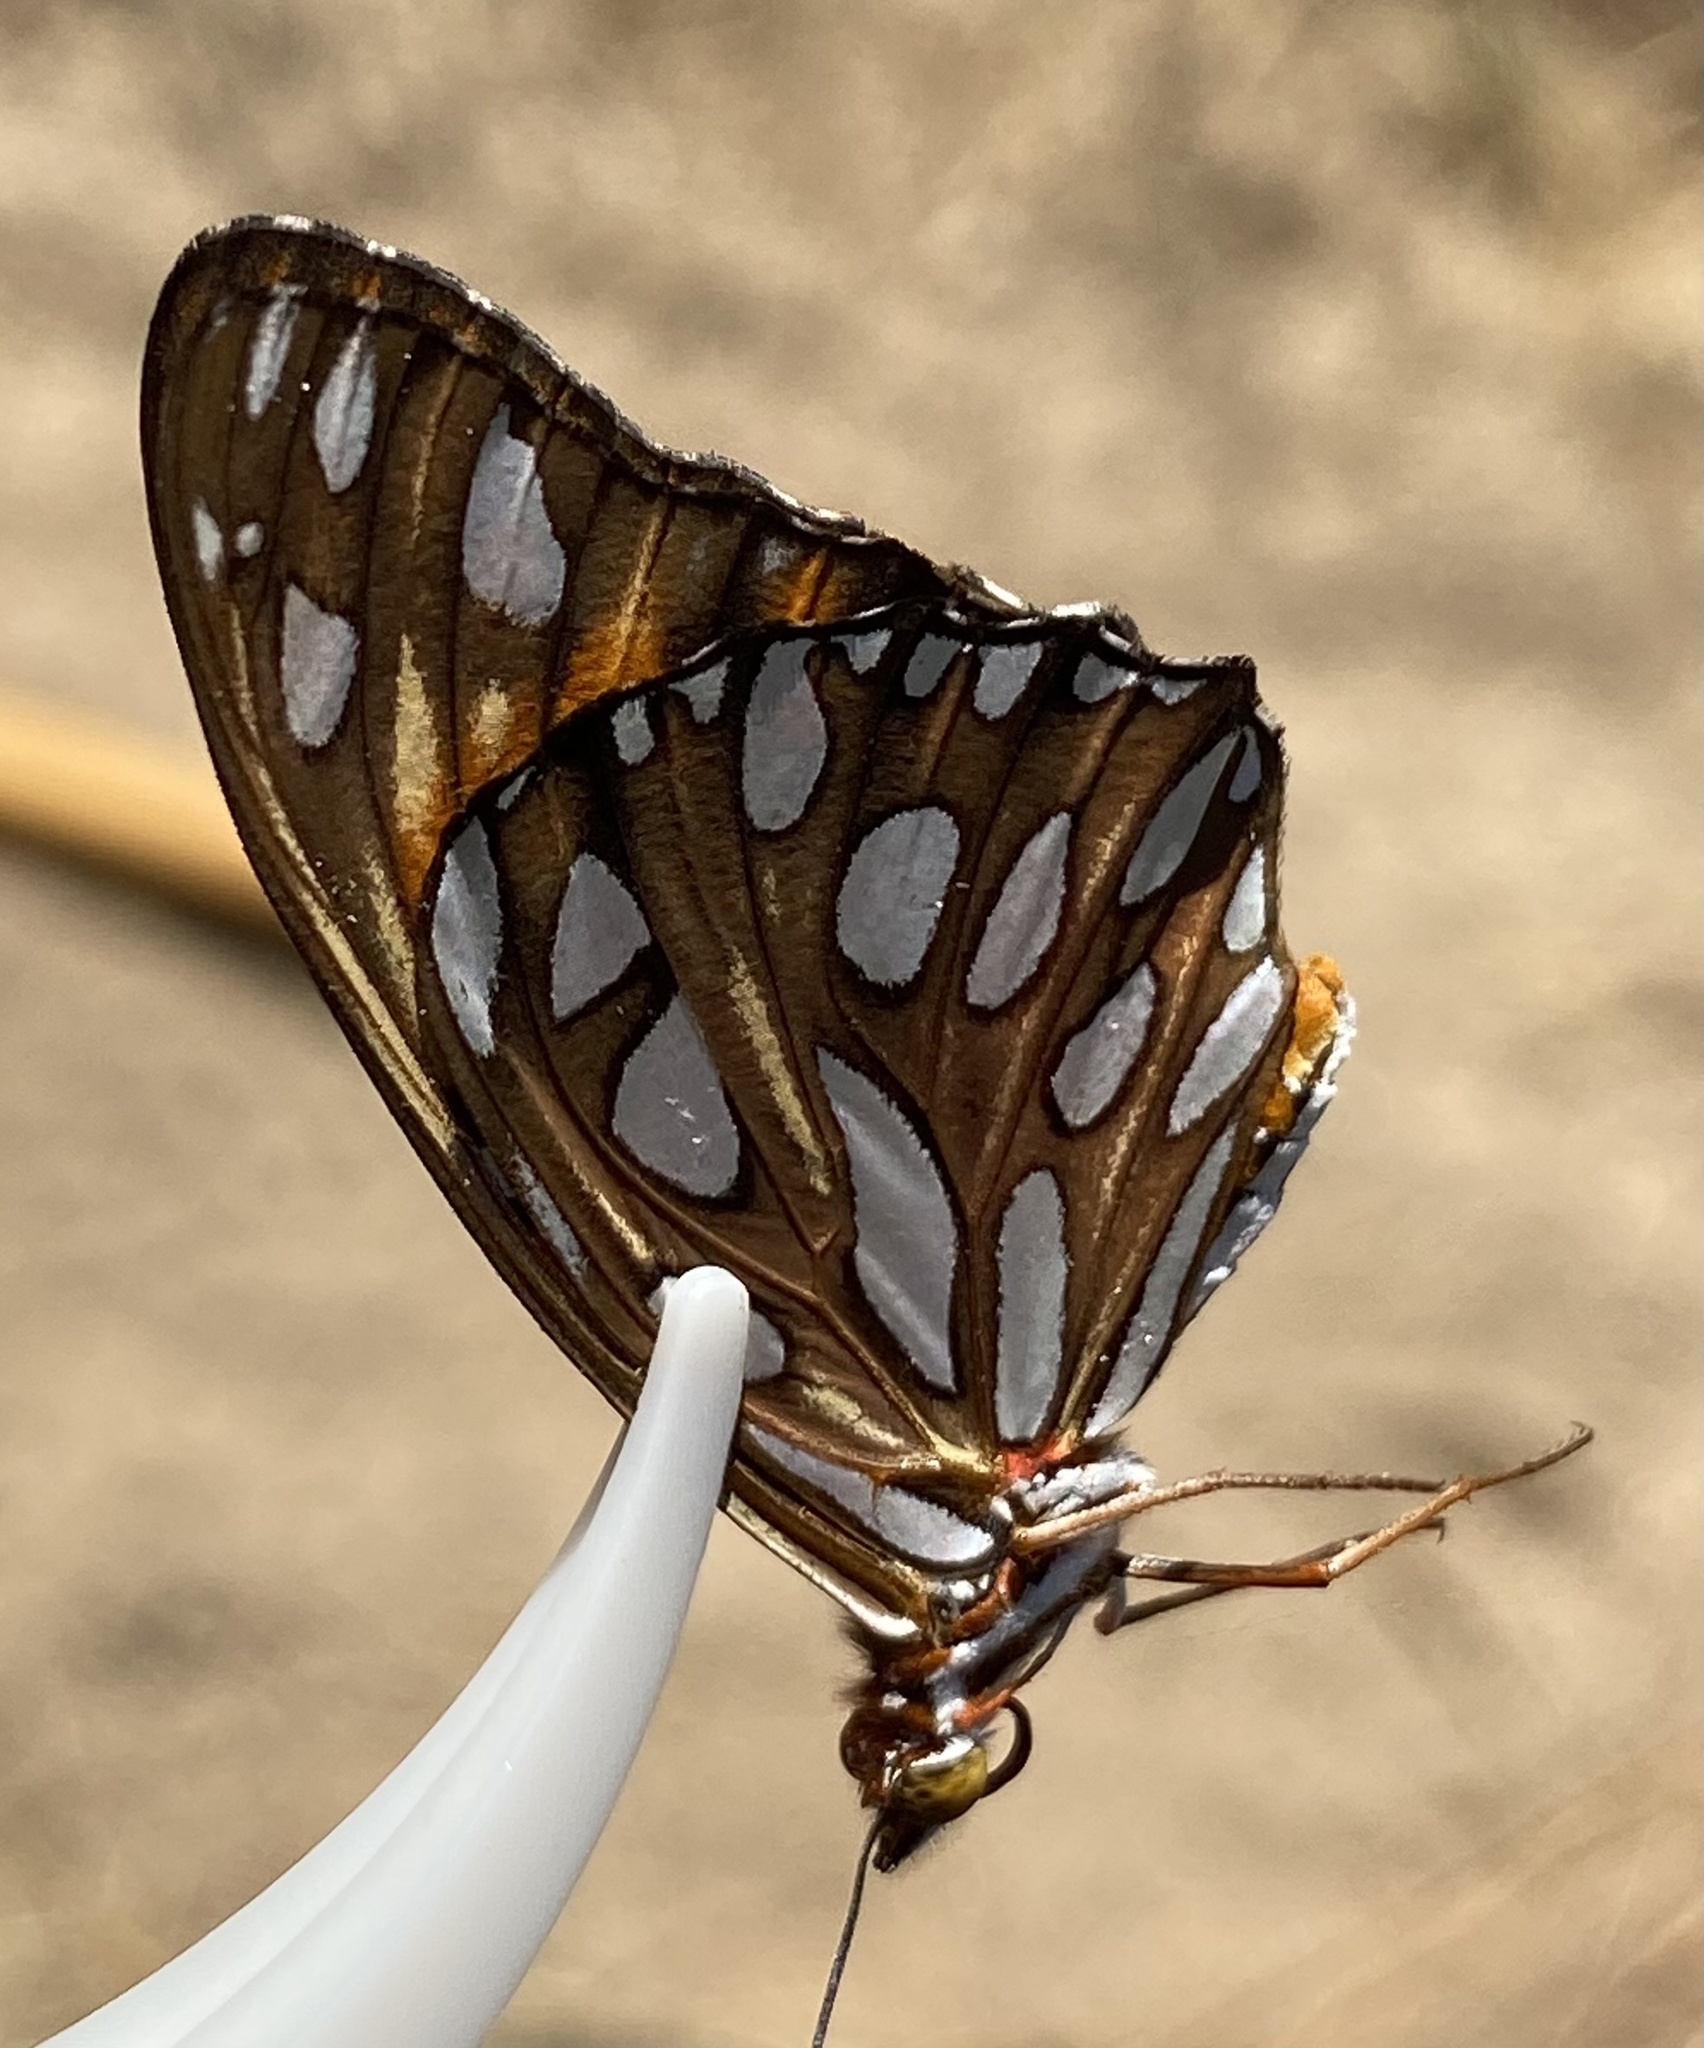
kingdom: Animalia
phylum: Arthropoda
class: Insecta
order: Lepidoptera
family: Nymphalidae
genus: Dione
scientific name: Dione vanillae
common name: Gulf fritillary
